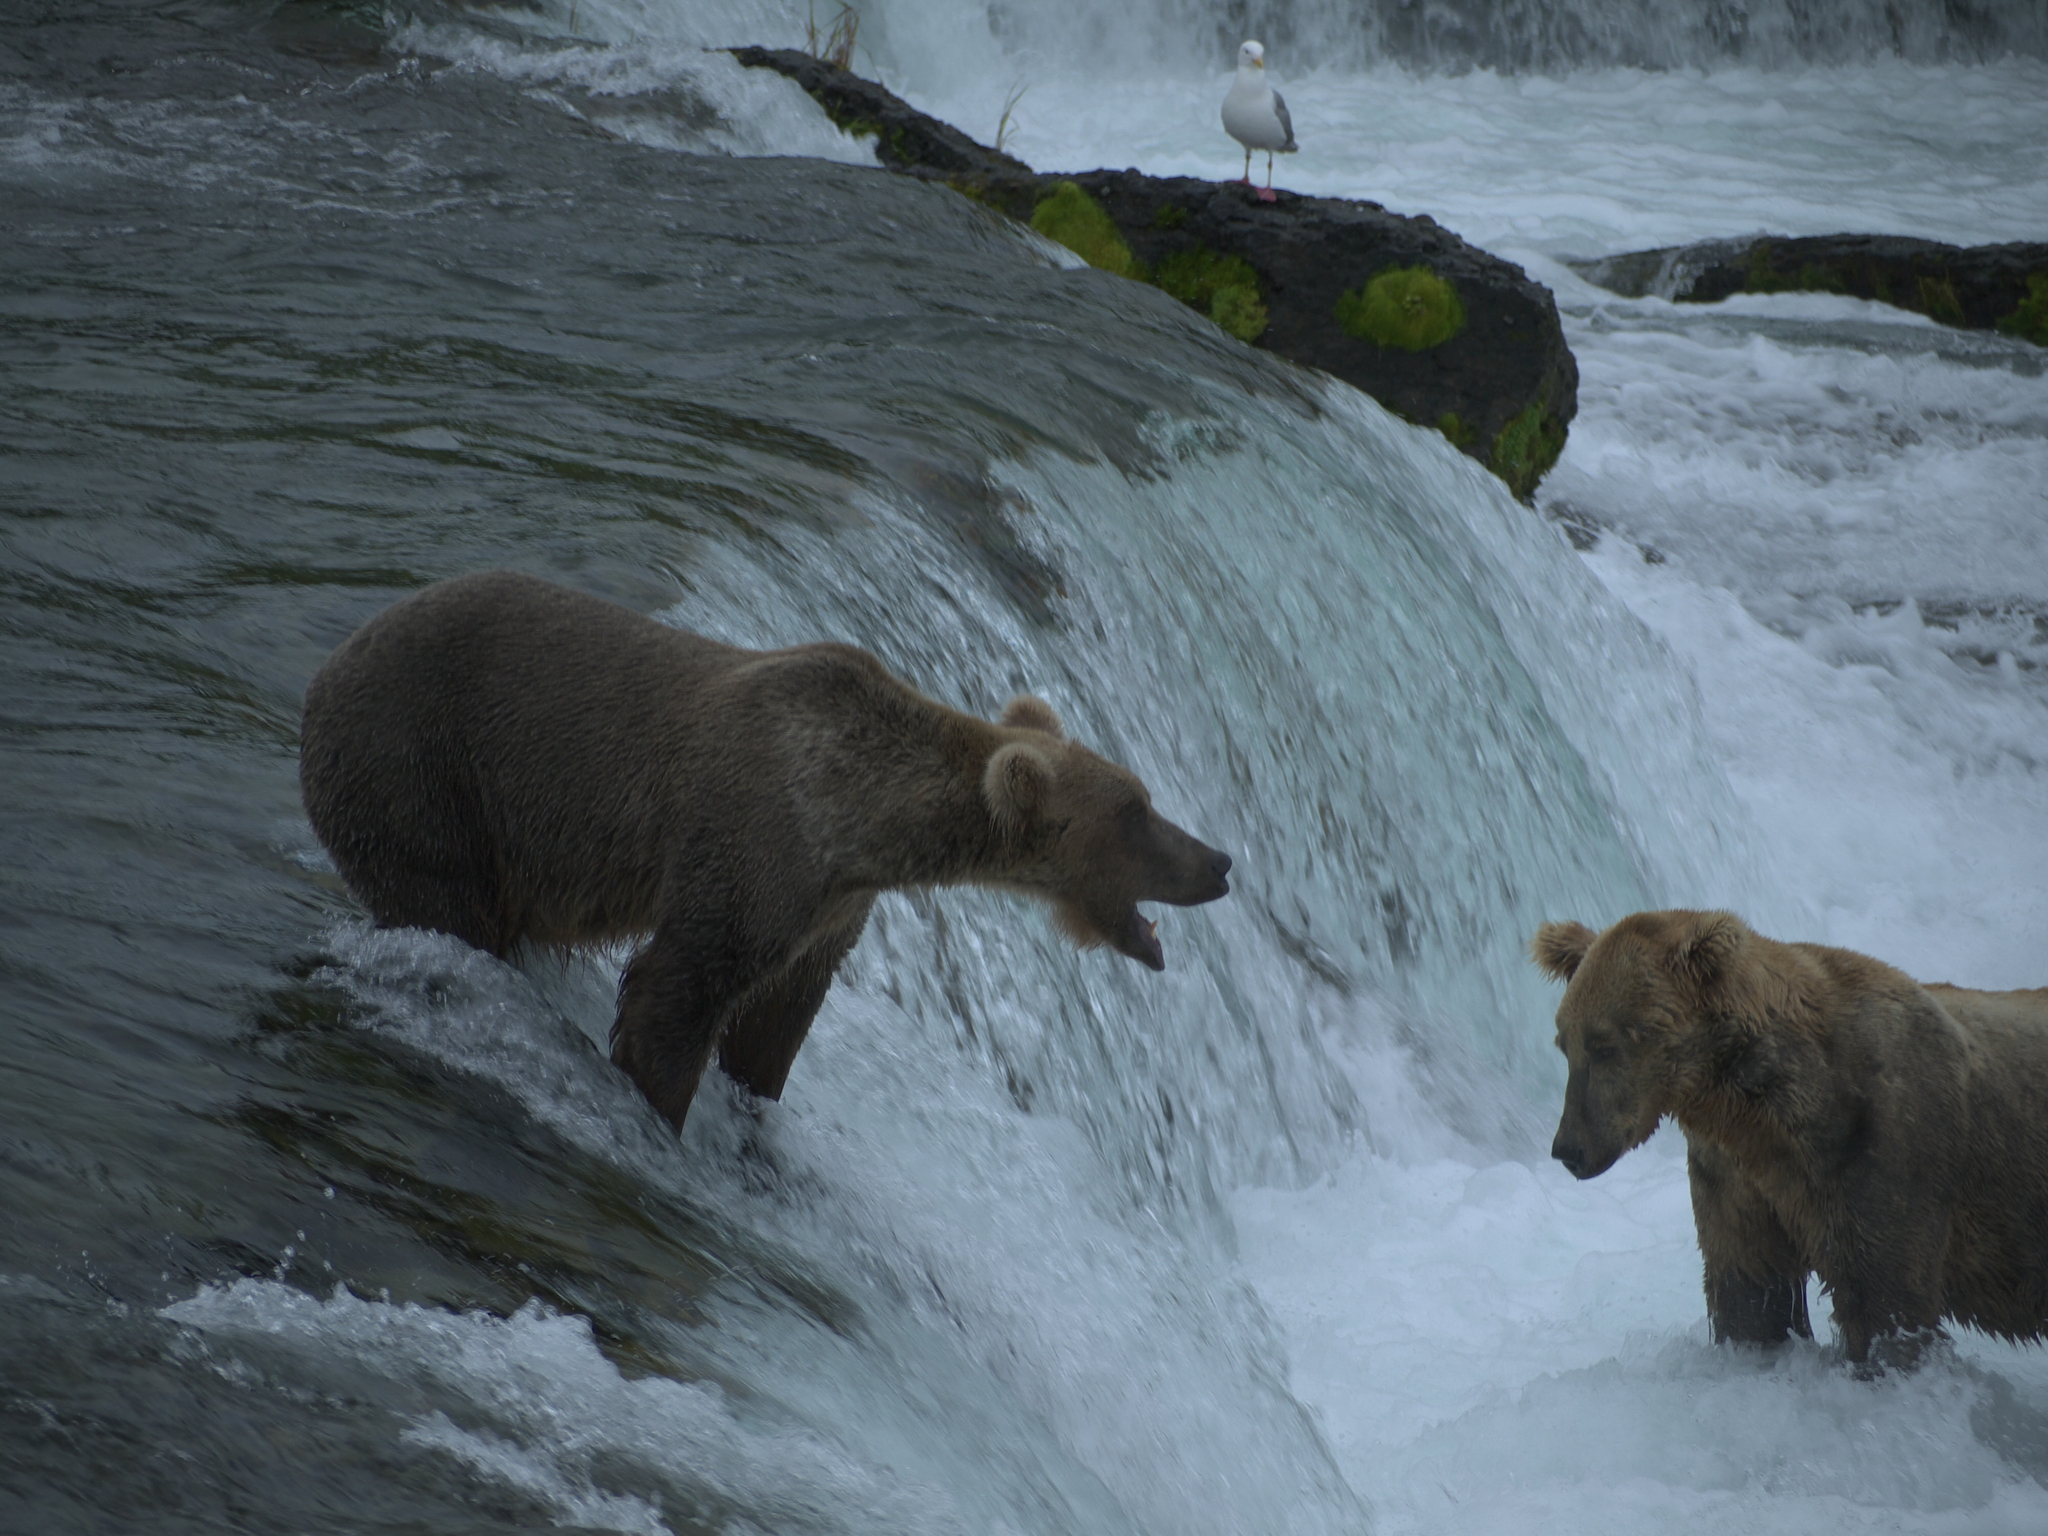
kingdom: Animalia
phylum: Chordata
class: Mammalia
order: Carnivora
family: Ursidae
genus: Ursus
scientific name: Ursus arctos
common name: Brown bear
